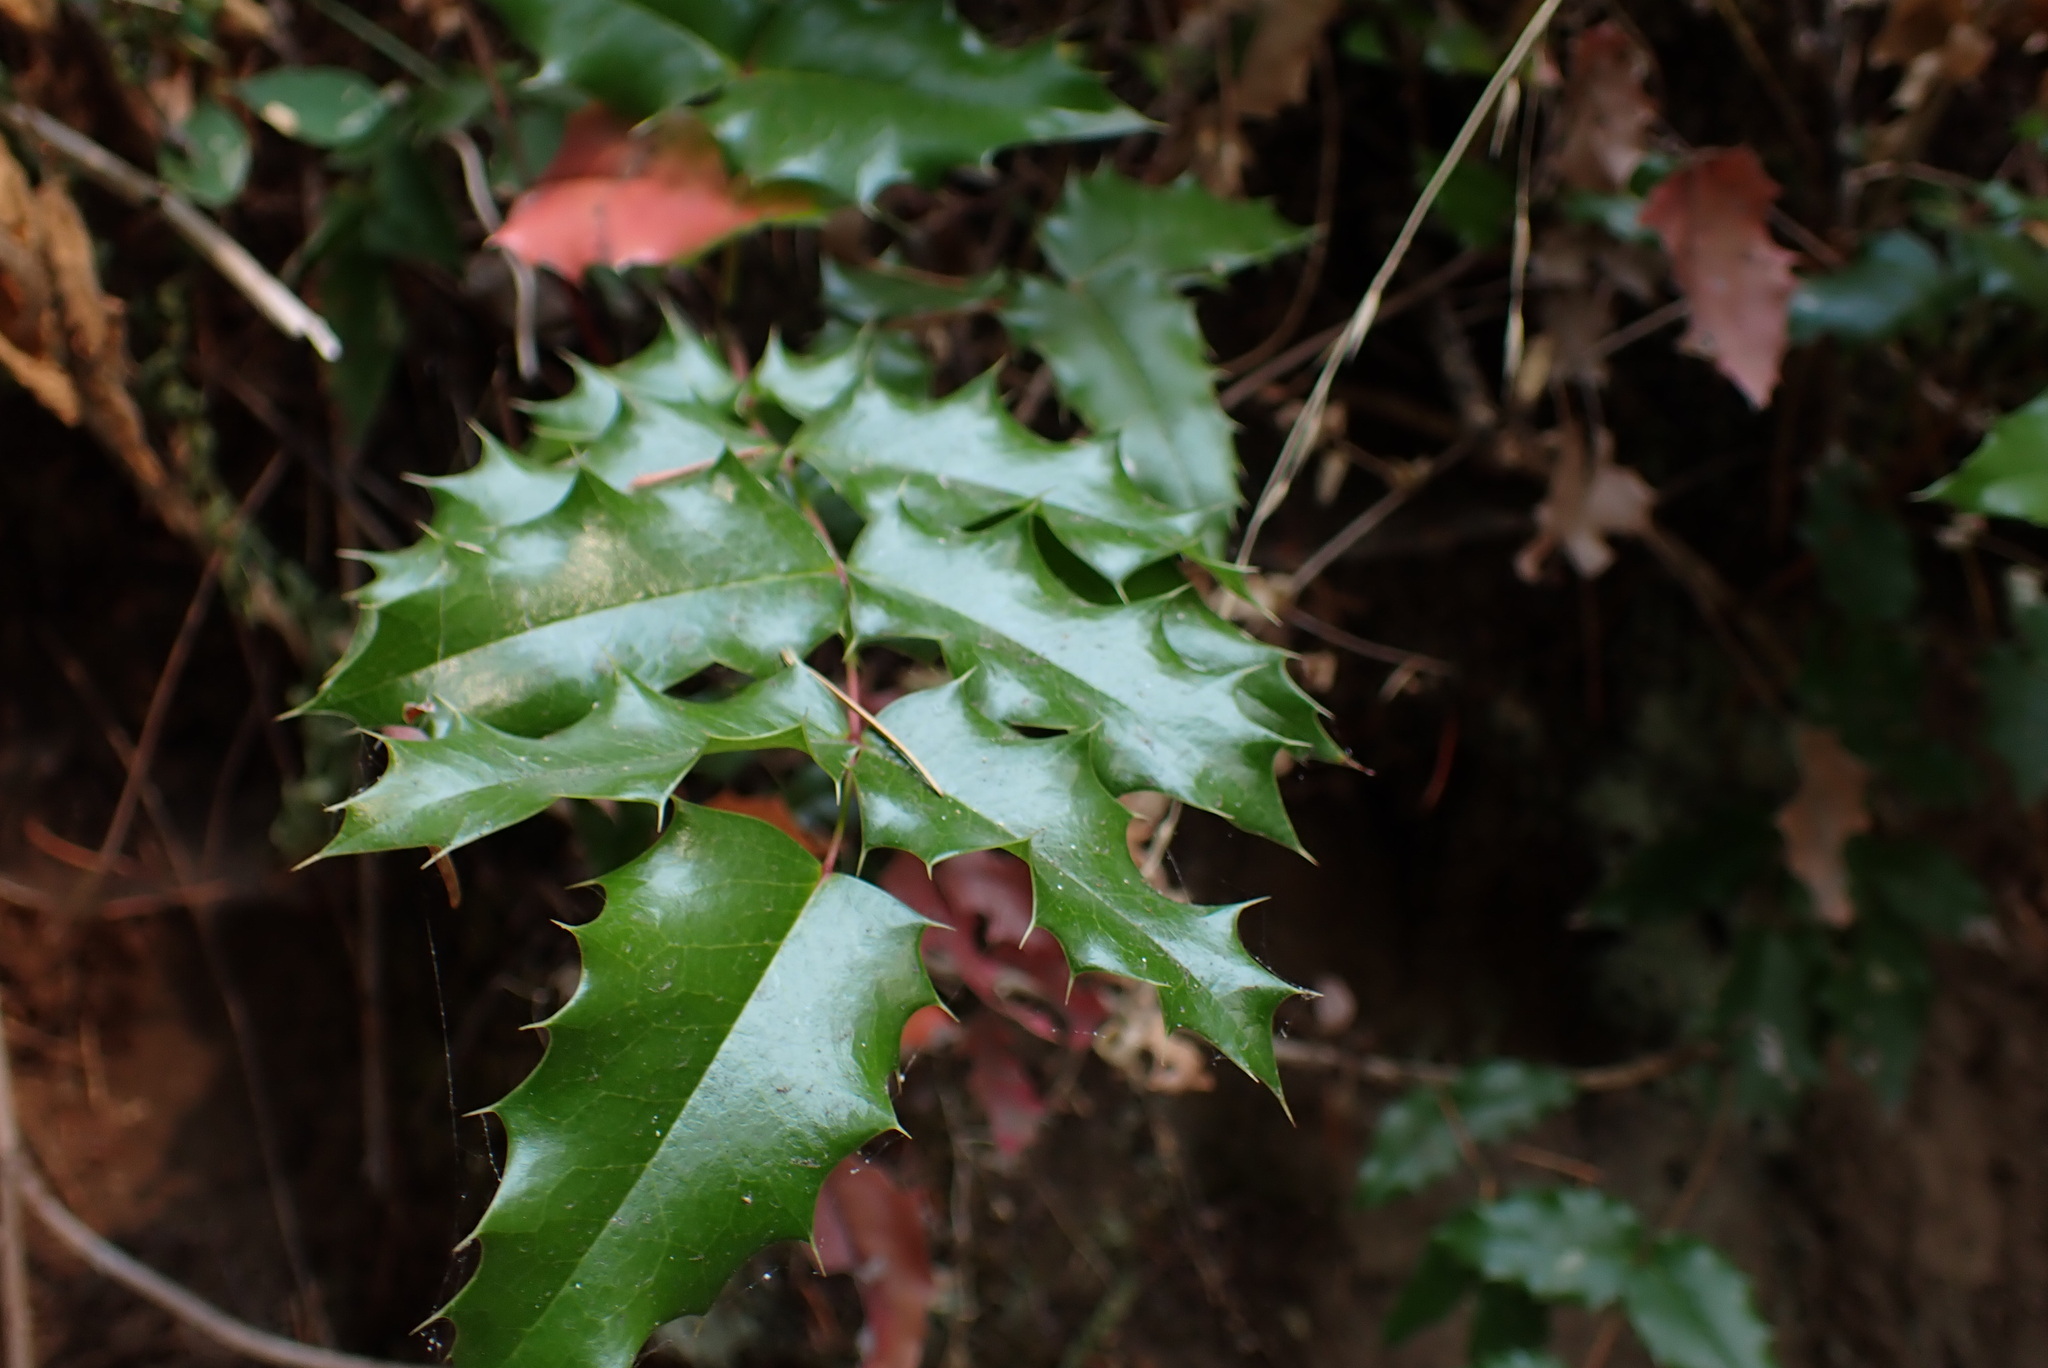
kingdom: Plantae
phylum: Tracheophyta
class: Magnoliopsida
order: Ranunculales
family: Berberidaceae
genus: Mahonia
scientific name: Mahonia aquifolium
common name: Oregon-grape
